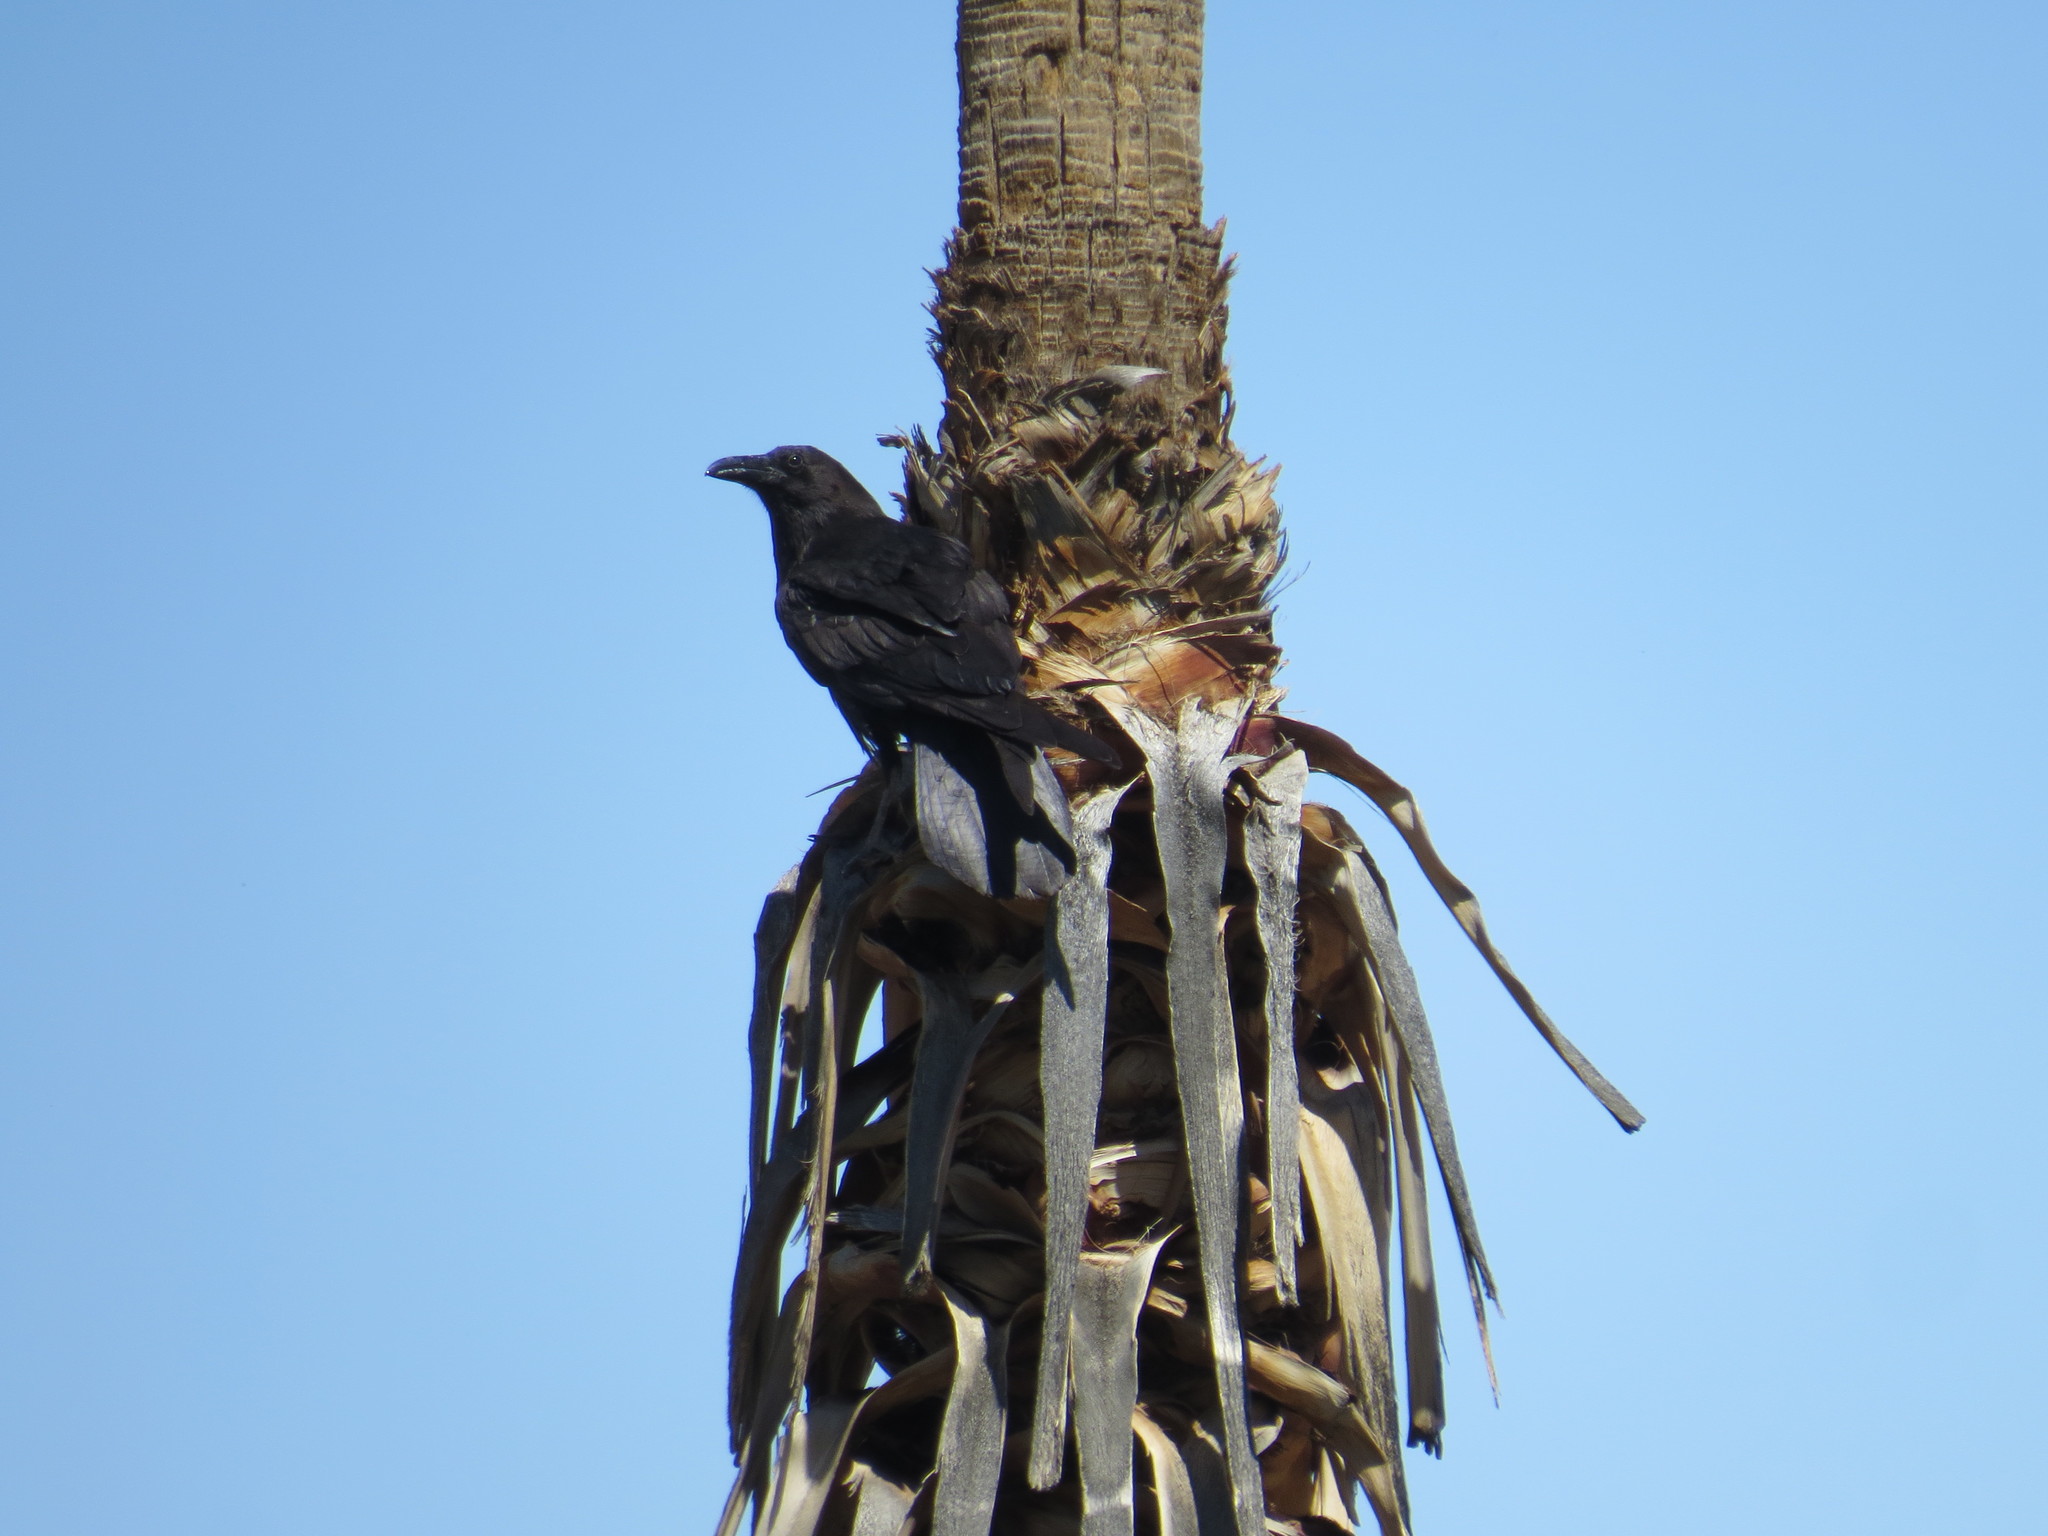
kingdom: Animalia
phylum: Chordata
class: Aves
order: Passeriformes
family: Corvidae
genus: Corvus
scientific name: Corvus corax
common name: Common raven
